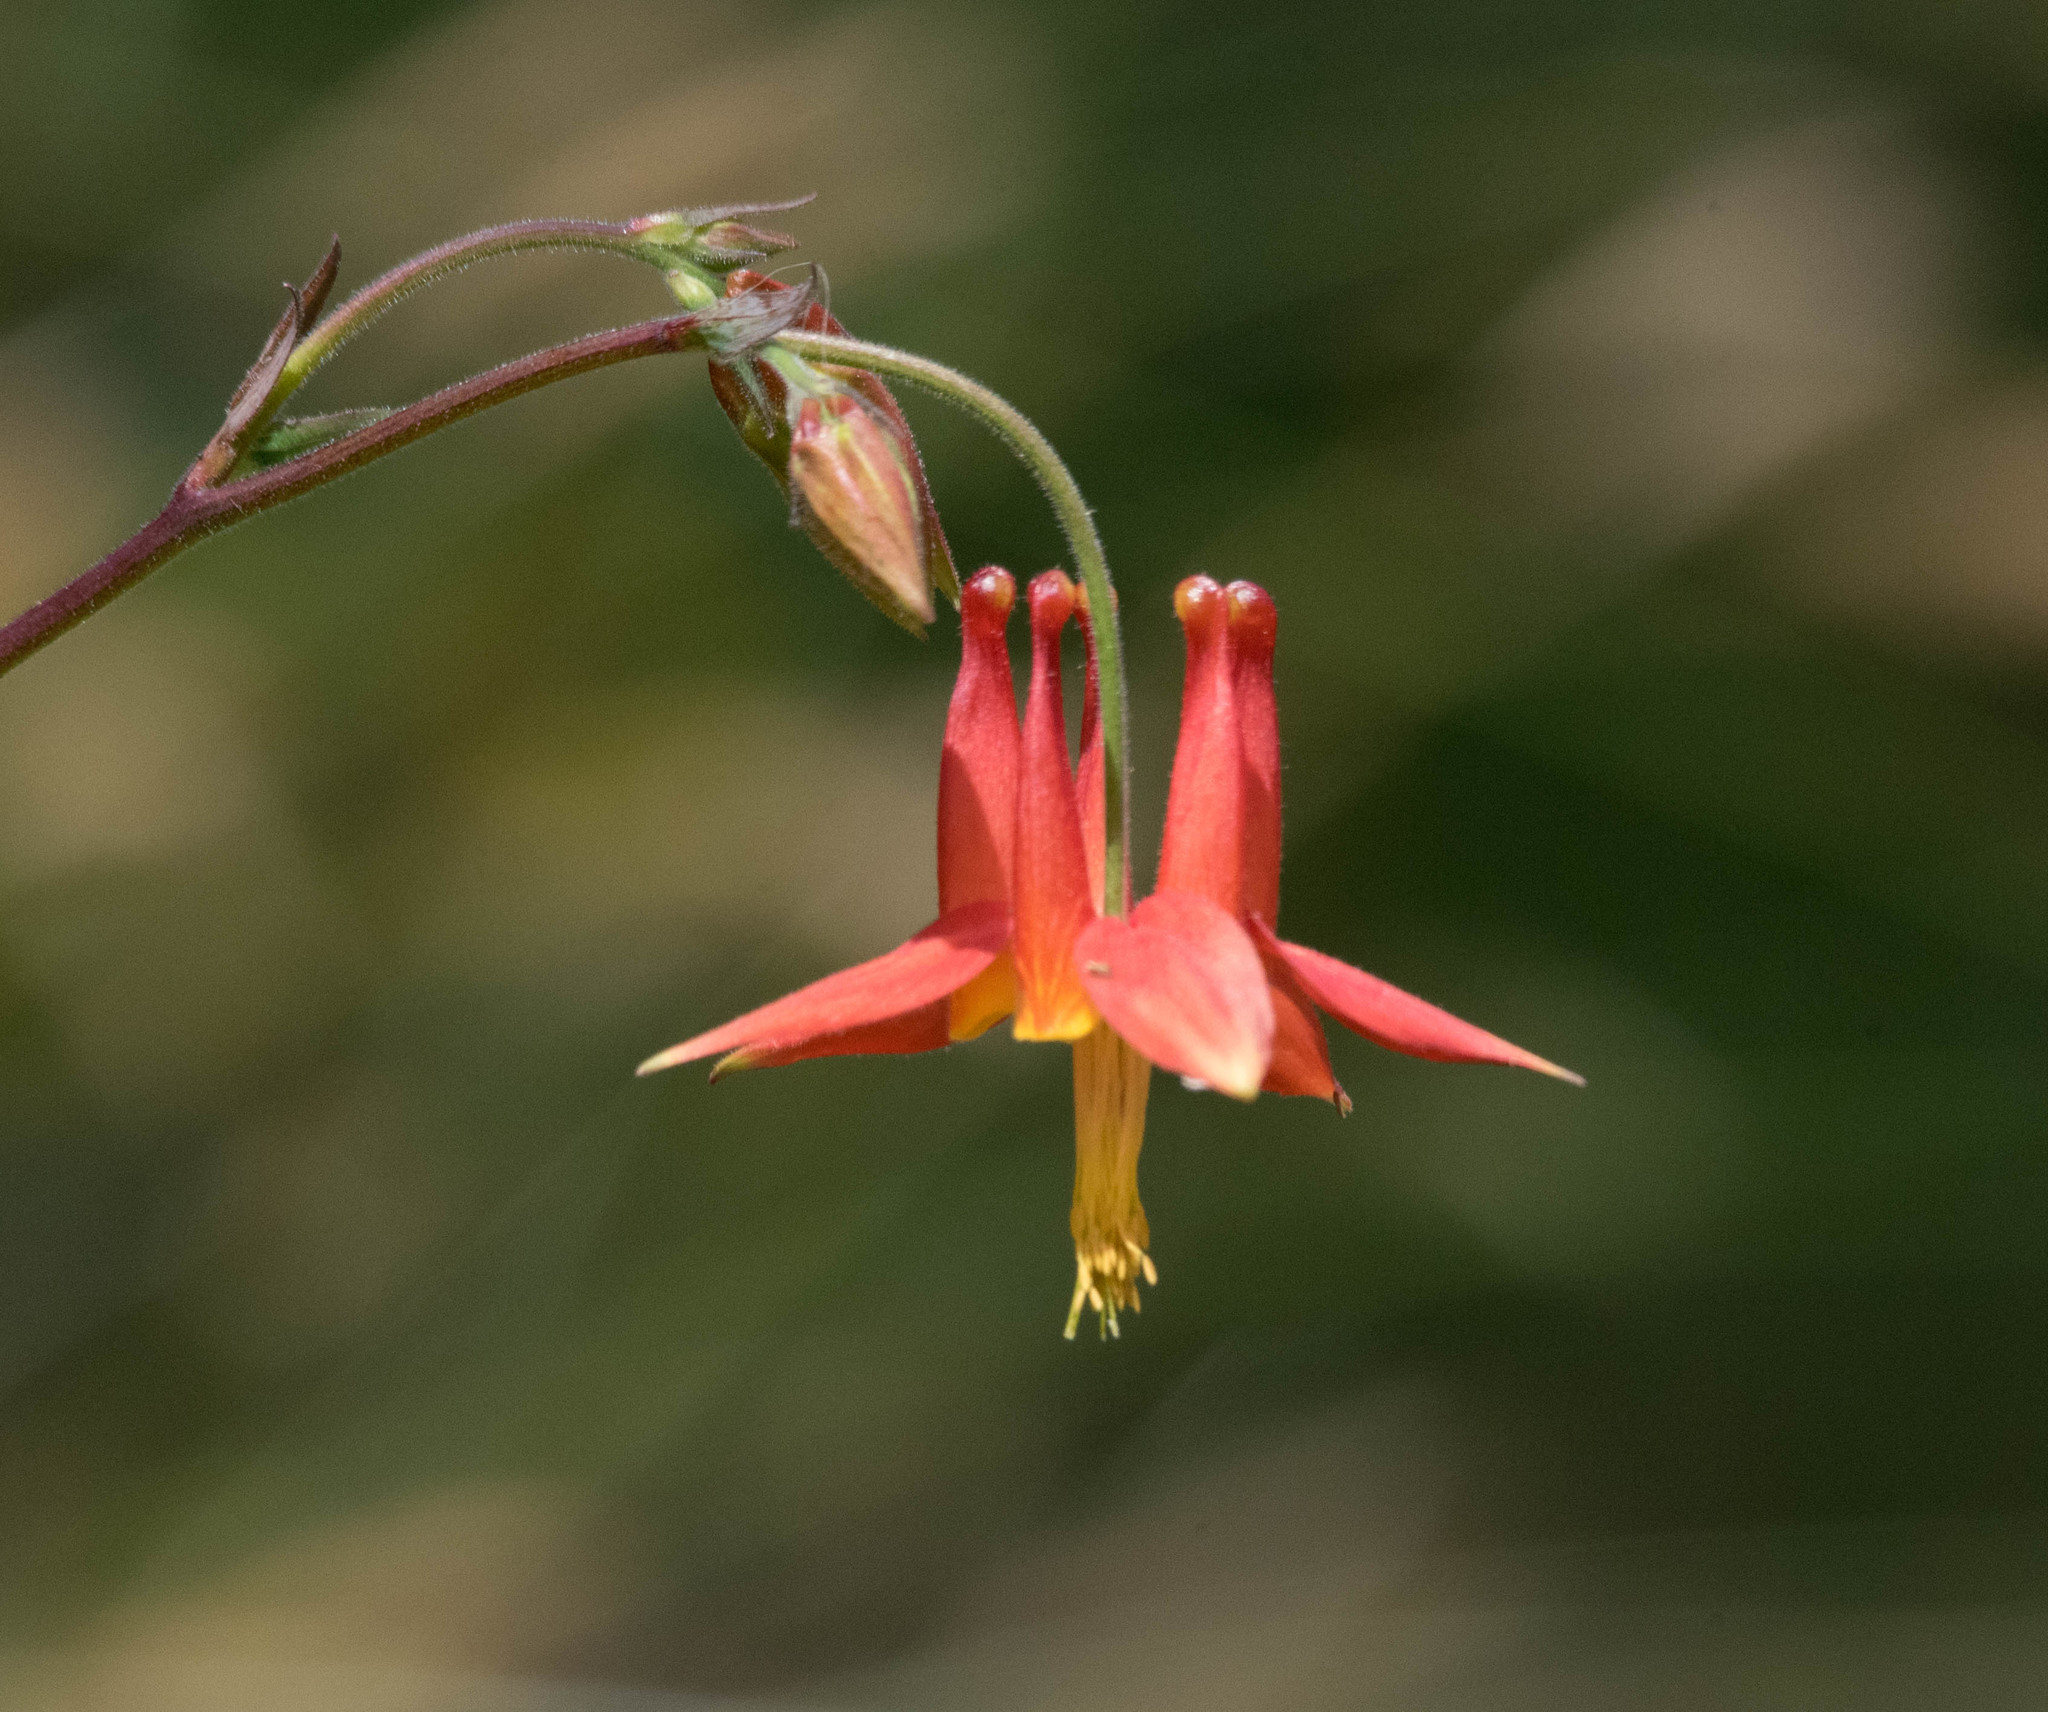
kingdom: Plantae
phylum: Tracheophyta
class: Magnoliopsida
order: Ranunculales
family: Ranunculaceae
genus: Aquilegia
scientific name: Aquilegia formosa
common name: Sitka columbine
